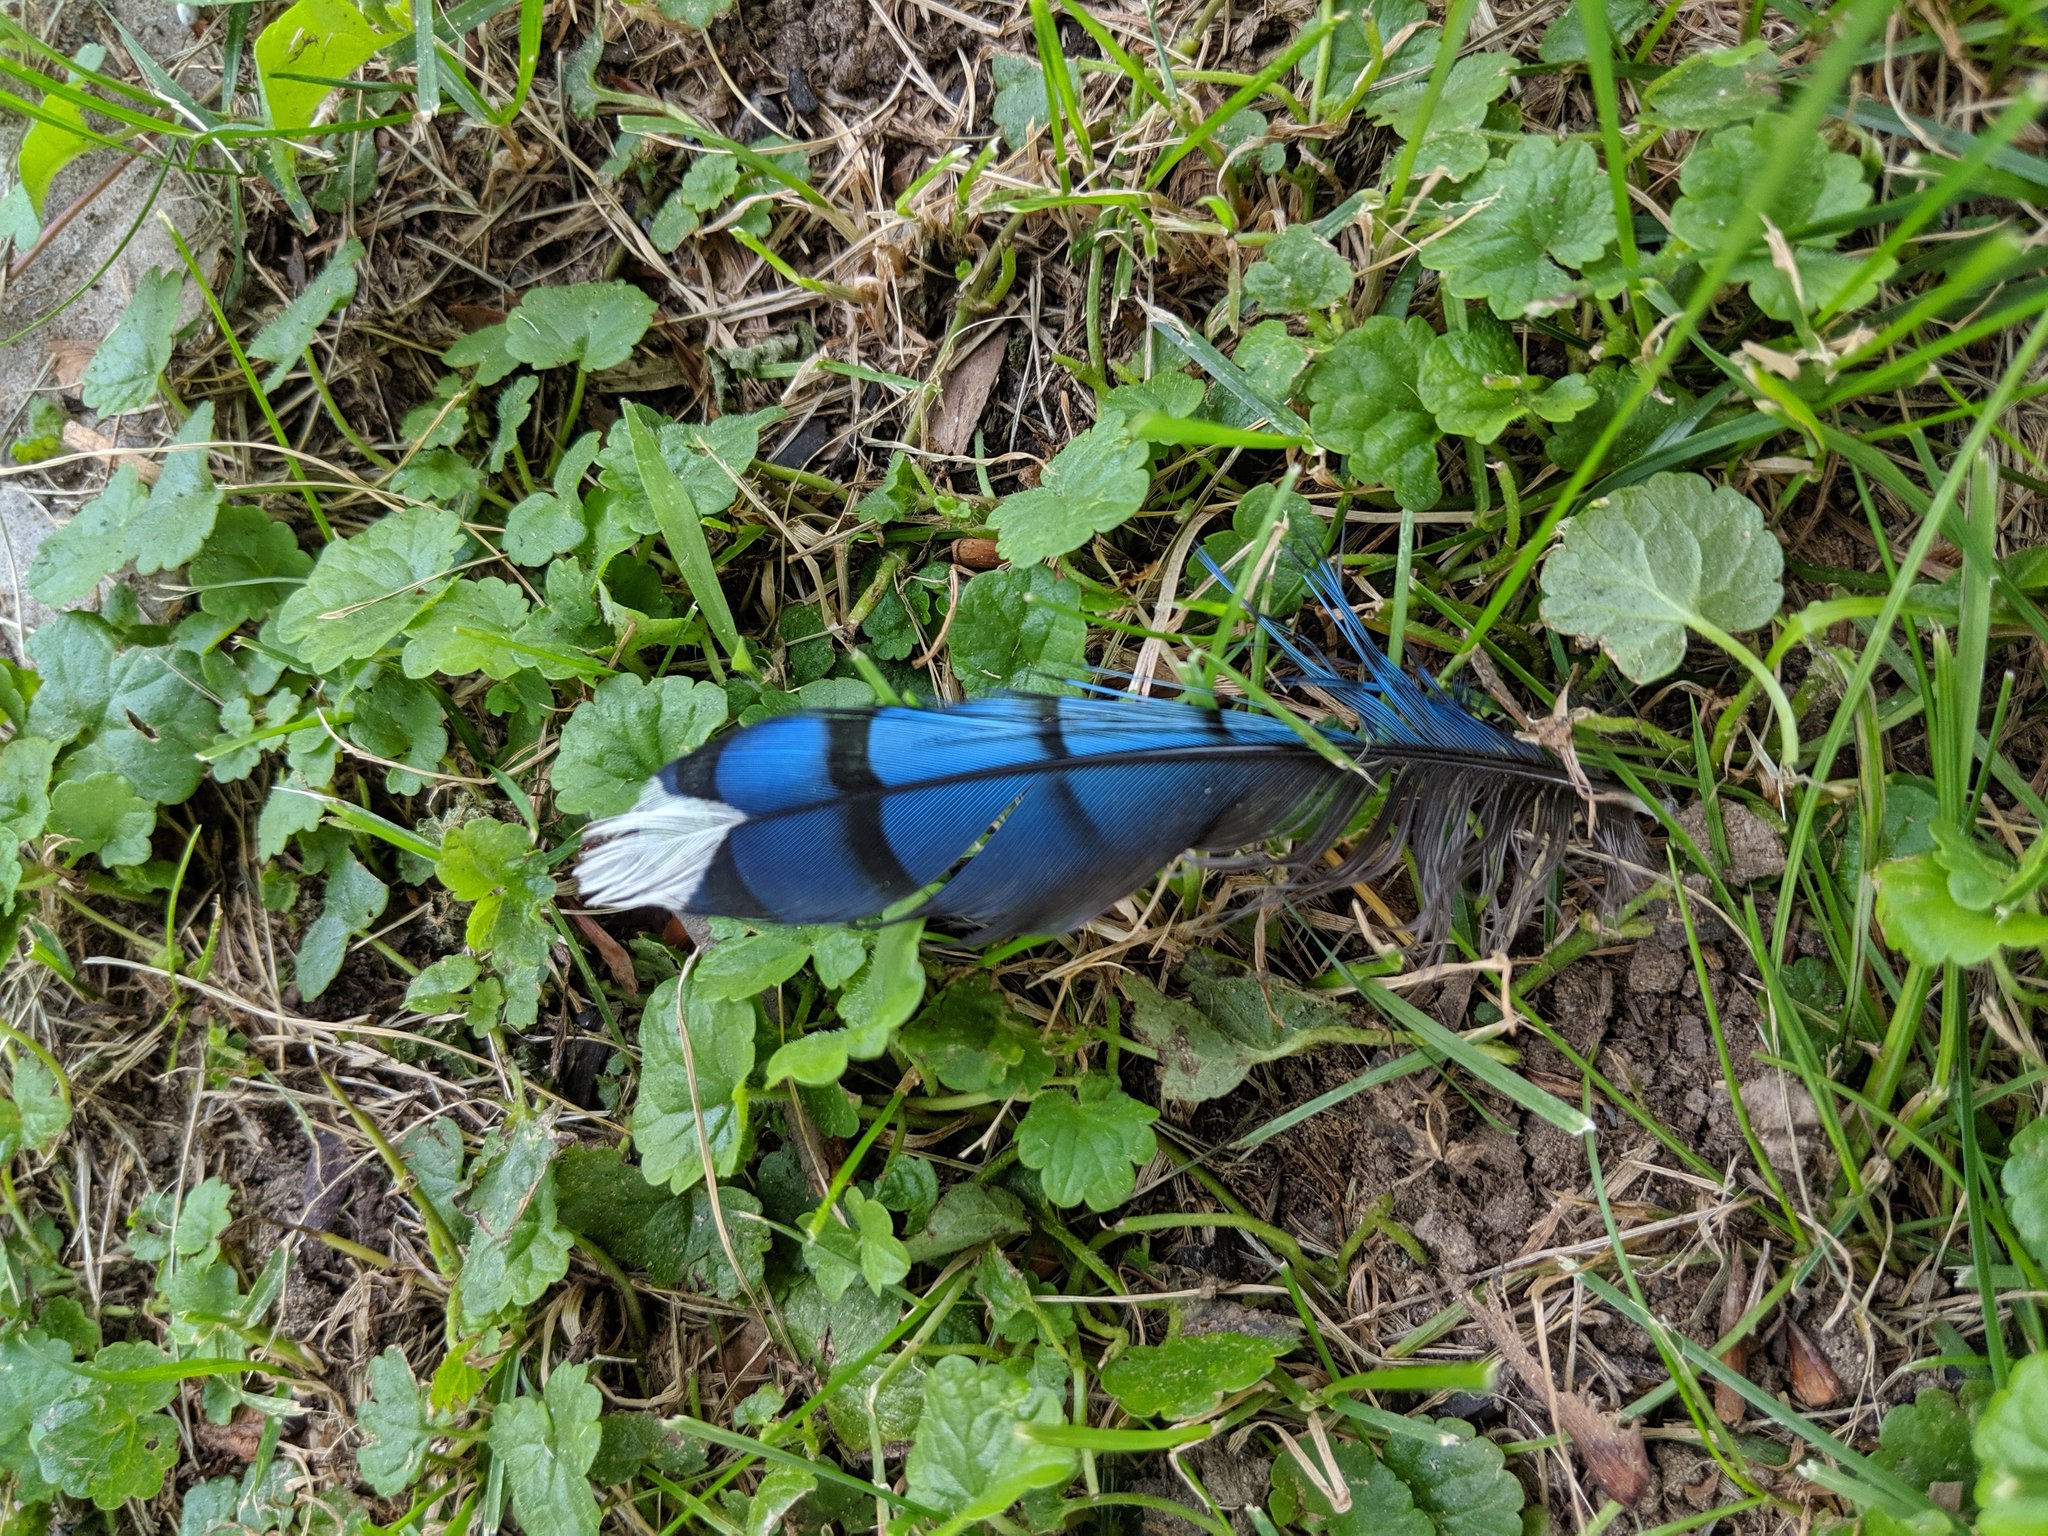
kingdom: Animalia
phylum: Chordata
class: Aves
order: Passeriformes
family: Corvidae
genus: Cyanocitta
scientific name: Cyanocitta cristata
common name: Blue jay
